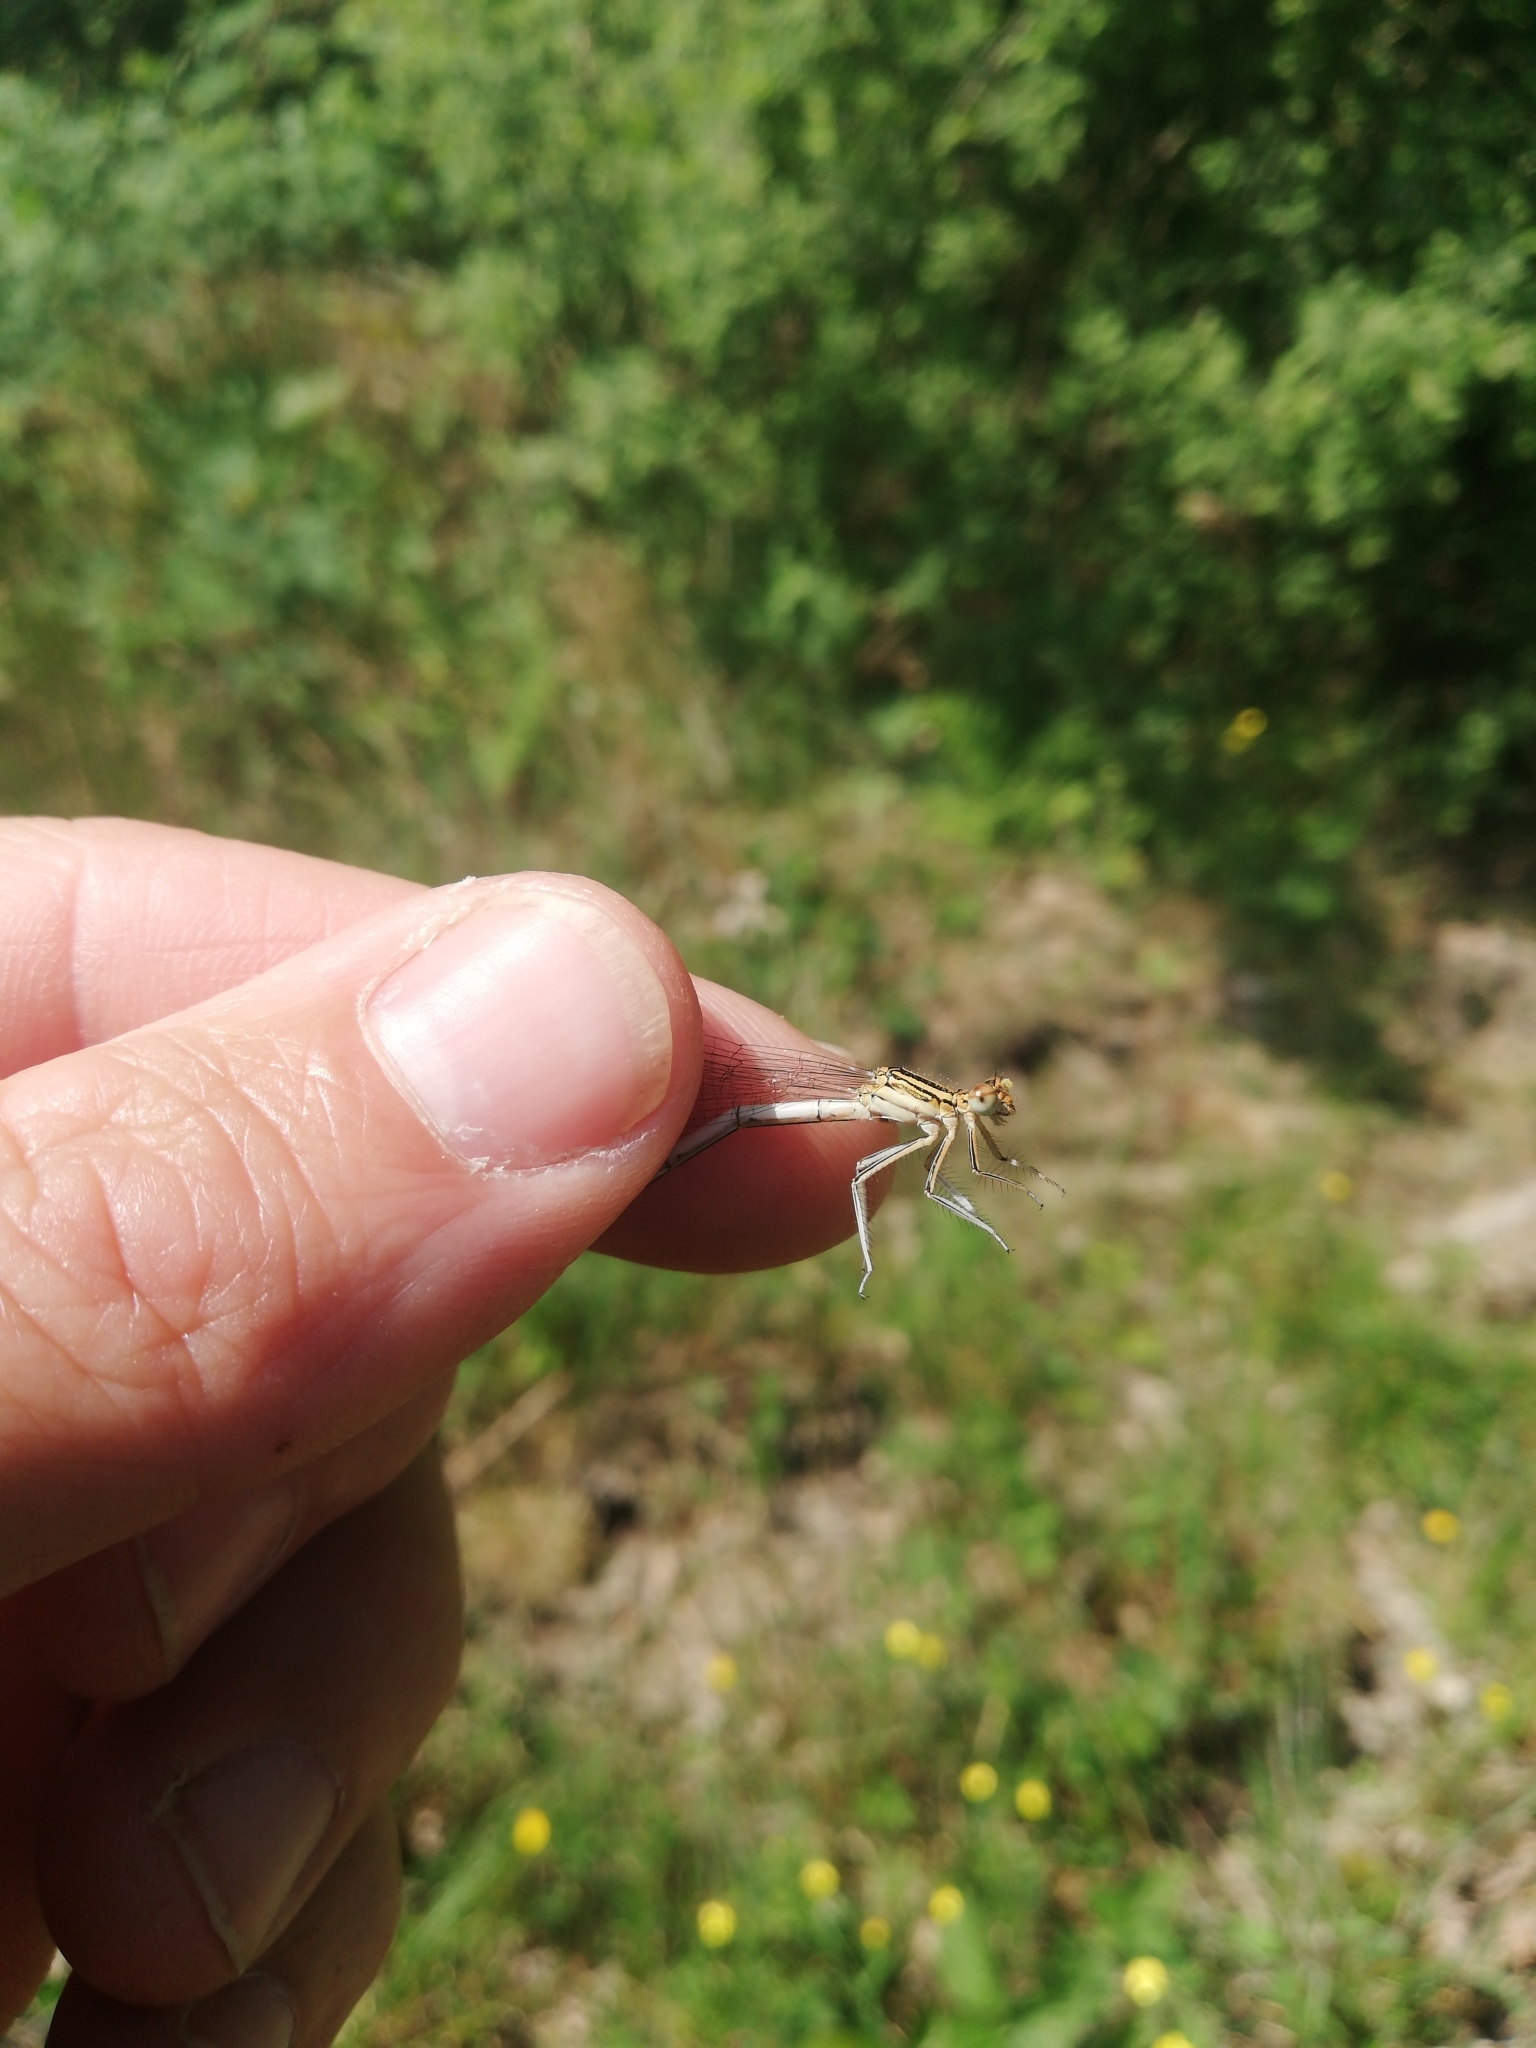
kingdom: Animalia
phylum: Arthropoda
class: Insecta
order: Odonata
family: Platycnemididae
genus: Platycnemis
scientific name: Platycnemis pennipes
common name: White-legged damselfly
